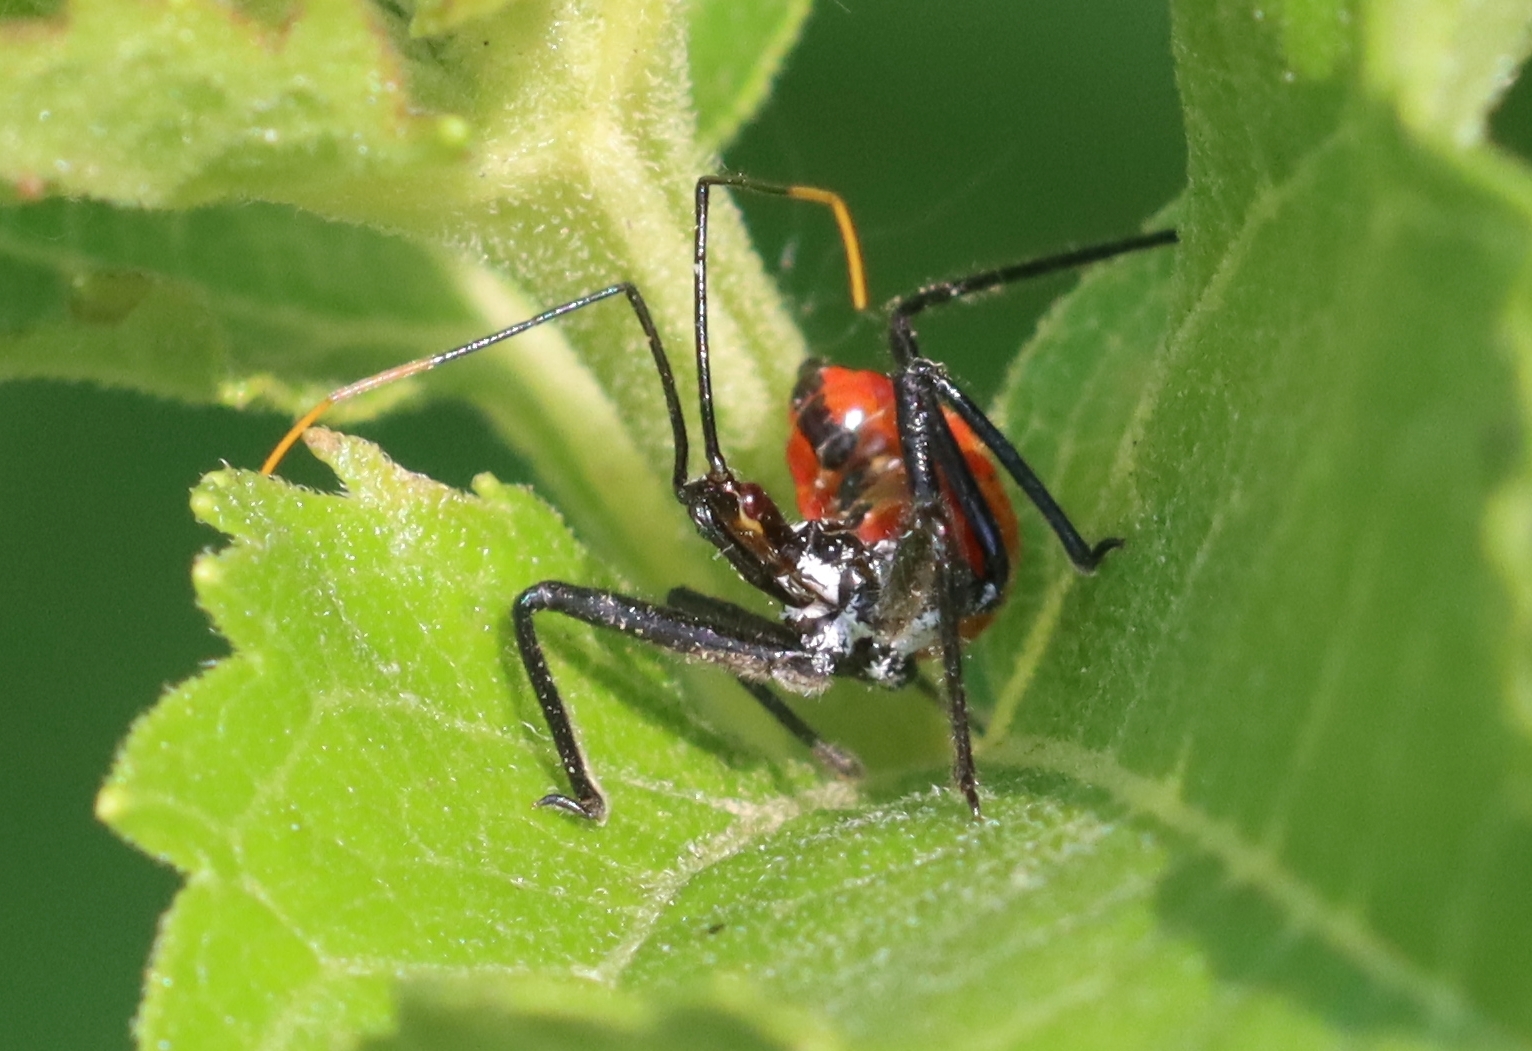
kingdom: Animalia
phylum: Arthropoda
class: Insecta
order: Hemiptera
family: Reduviidae
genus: Arilus
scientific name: Arilus cristatus
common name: North american wheel bug
